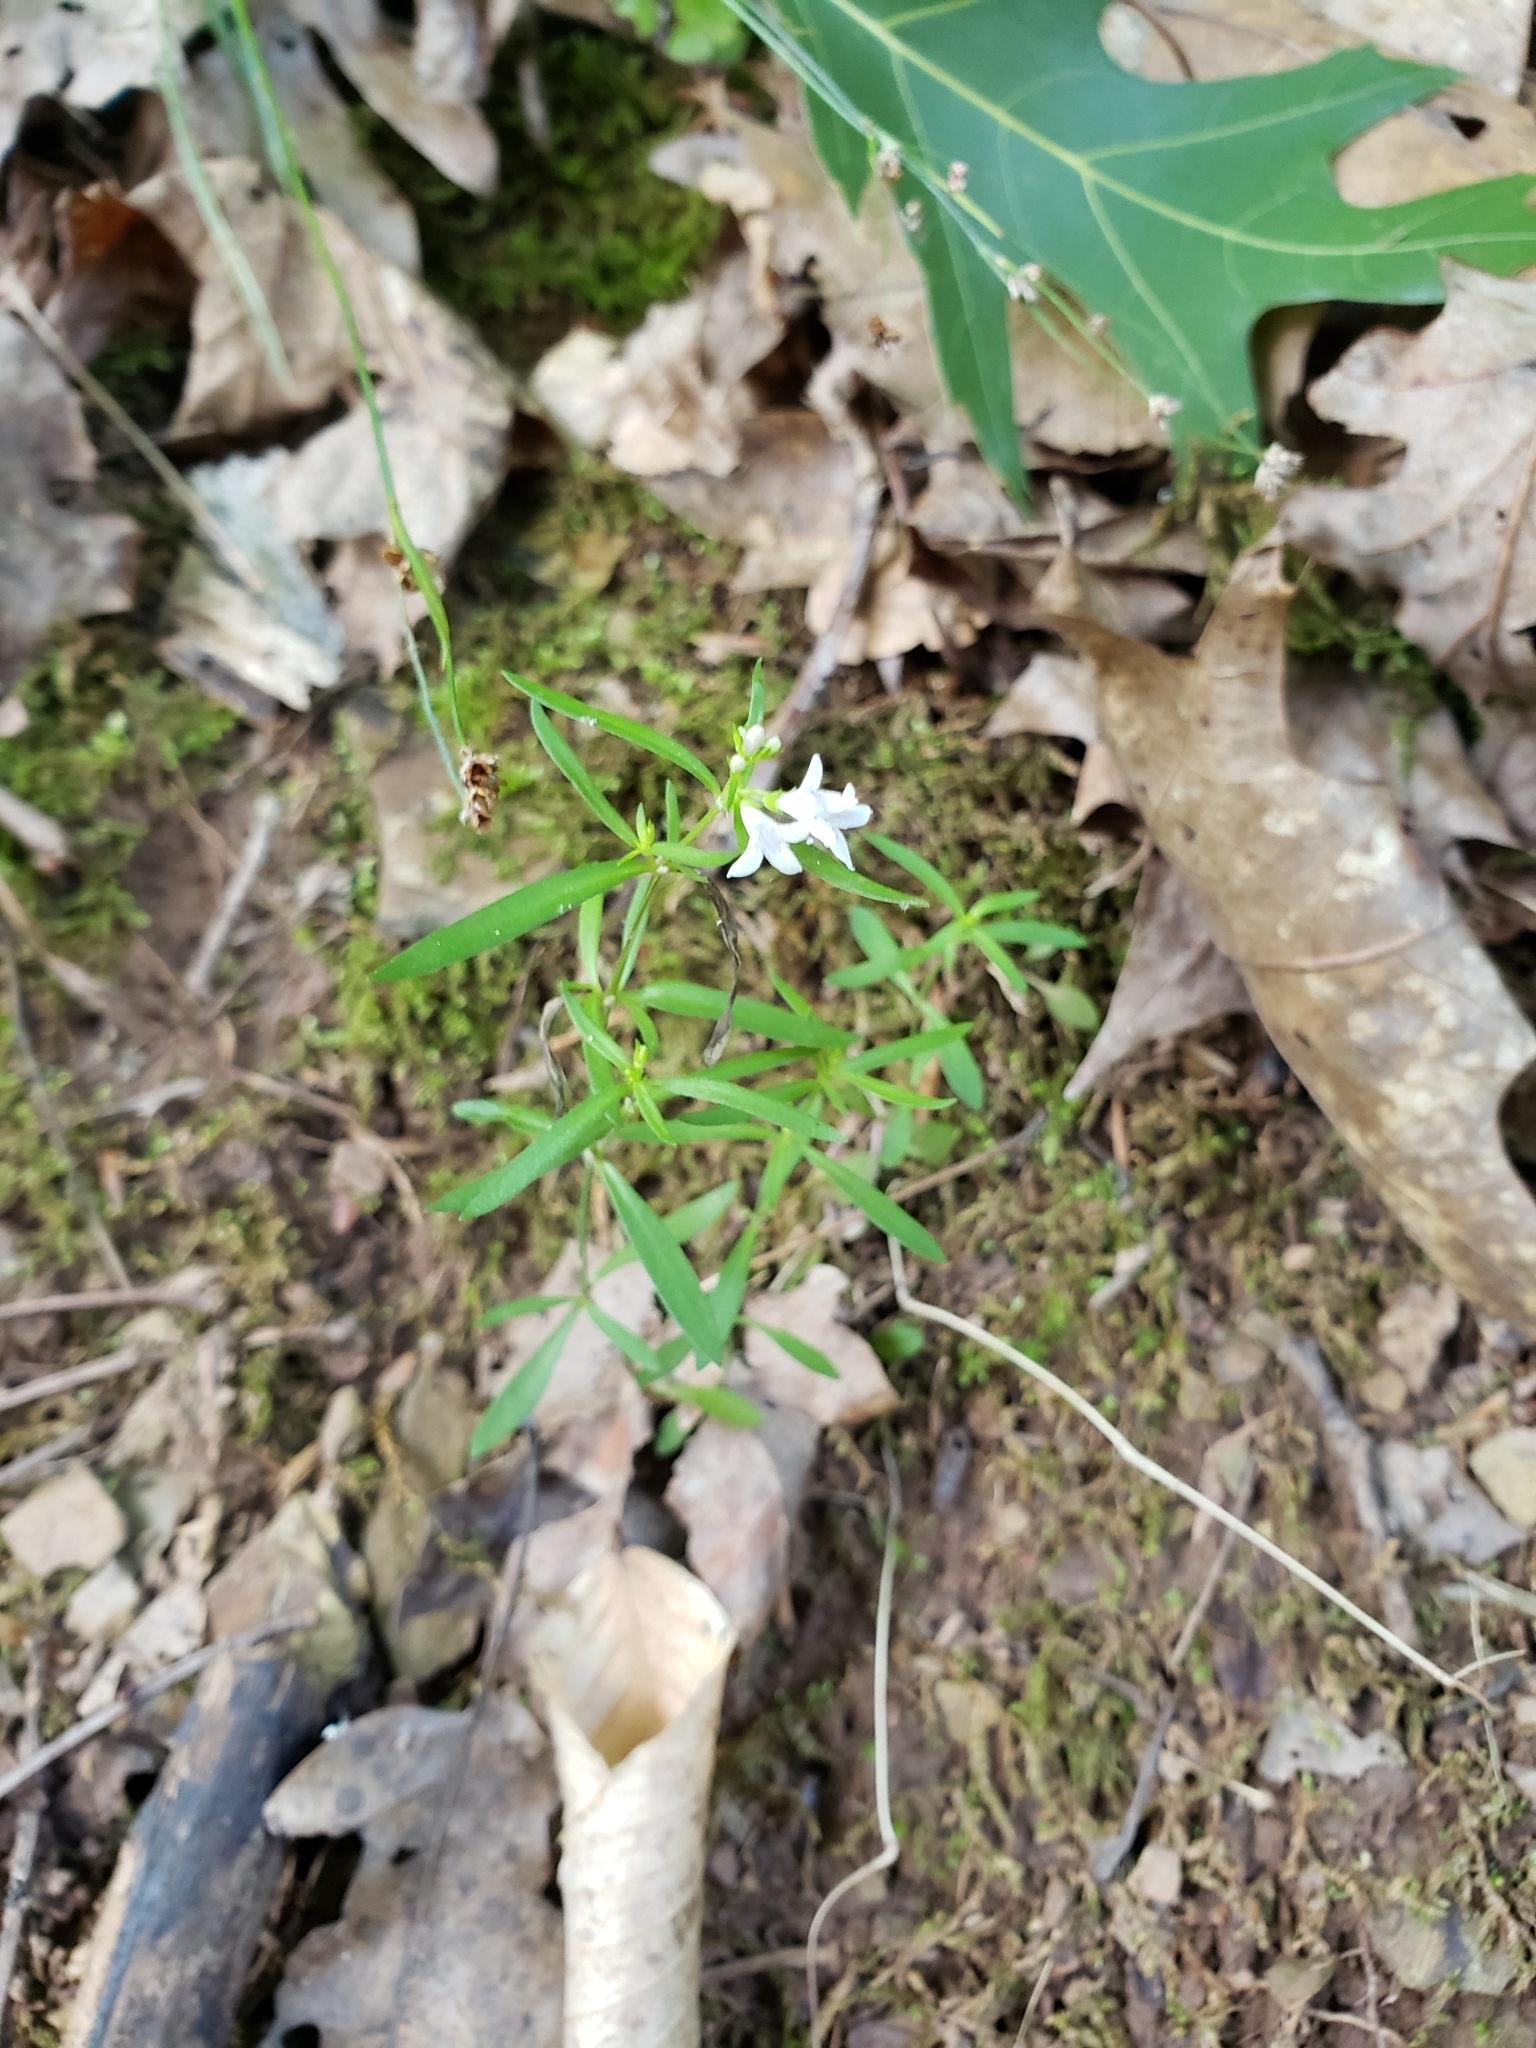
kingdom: Plantae
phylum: Tracheophyta
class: Magnoliopsida
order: Gentianales
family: Rubiaceae
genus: Houstonia
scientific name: Houstonia longifolia
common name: Long-leaved bluets
